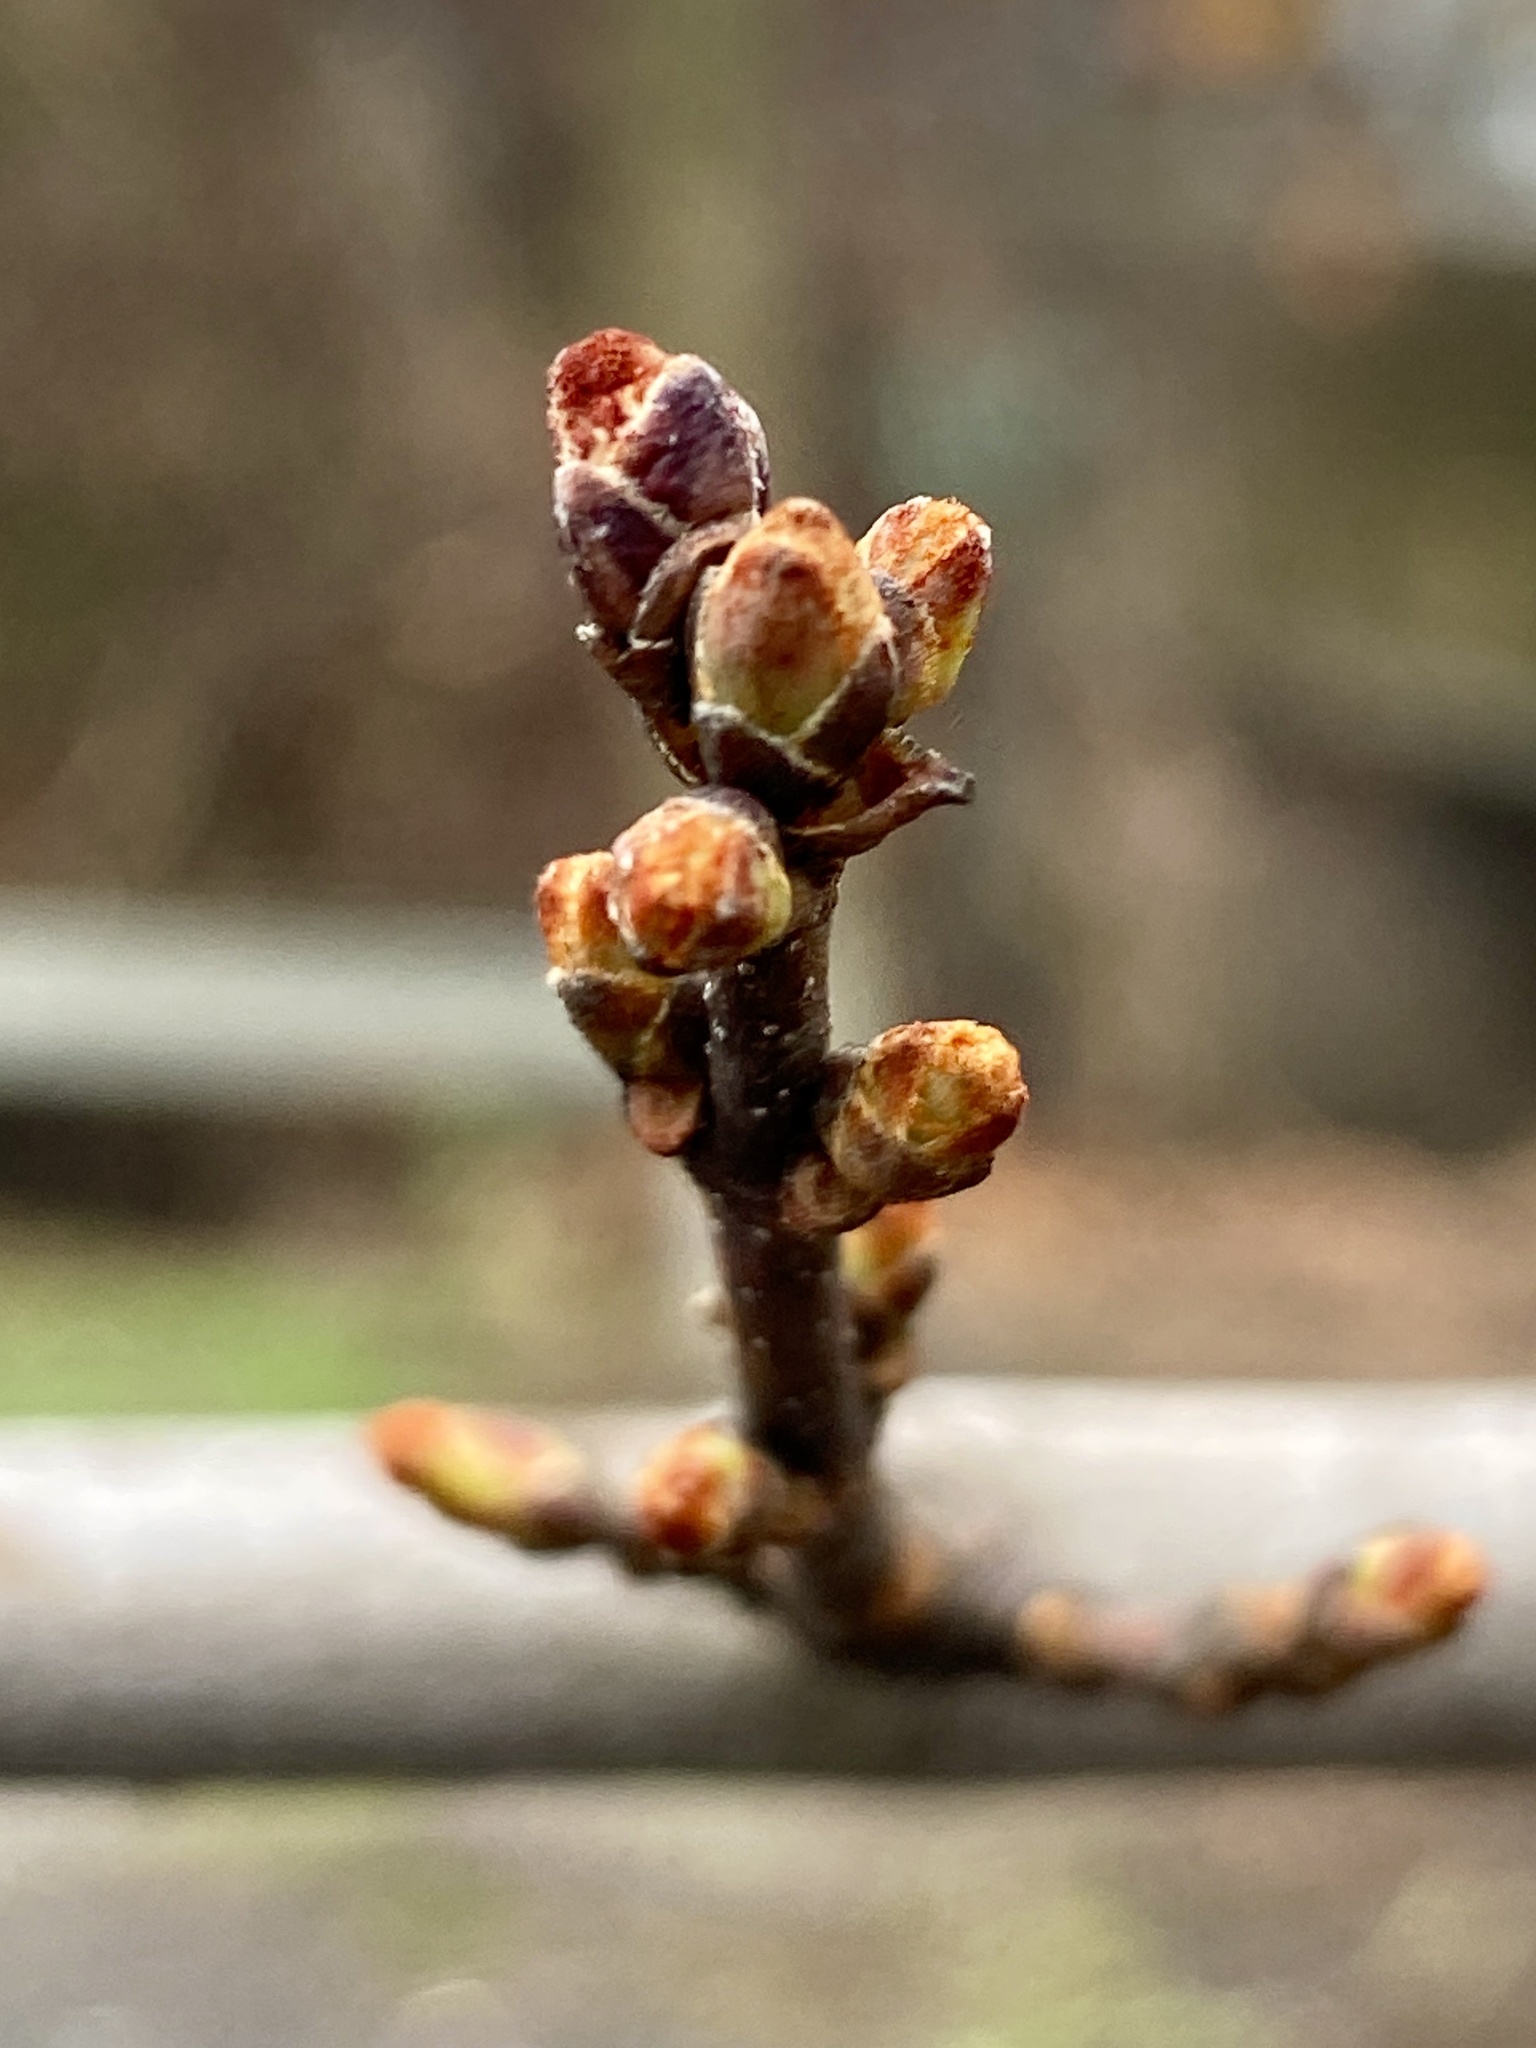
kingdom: Plantae
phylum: Tracheophyta
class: Magnoliopsida
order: Sapindales
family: Sapindaceae
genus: Acer
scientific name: Acer rubrum
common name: Red maple
